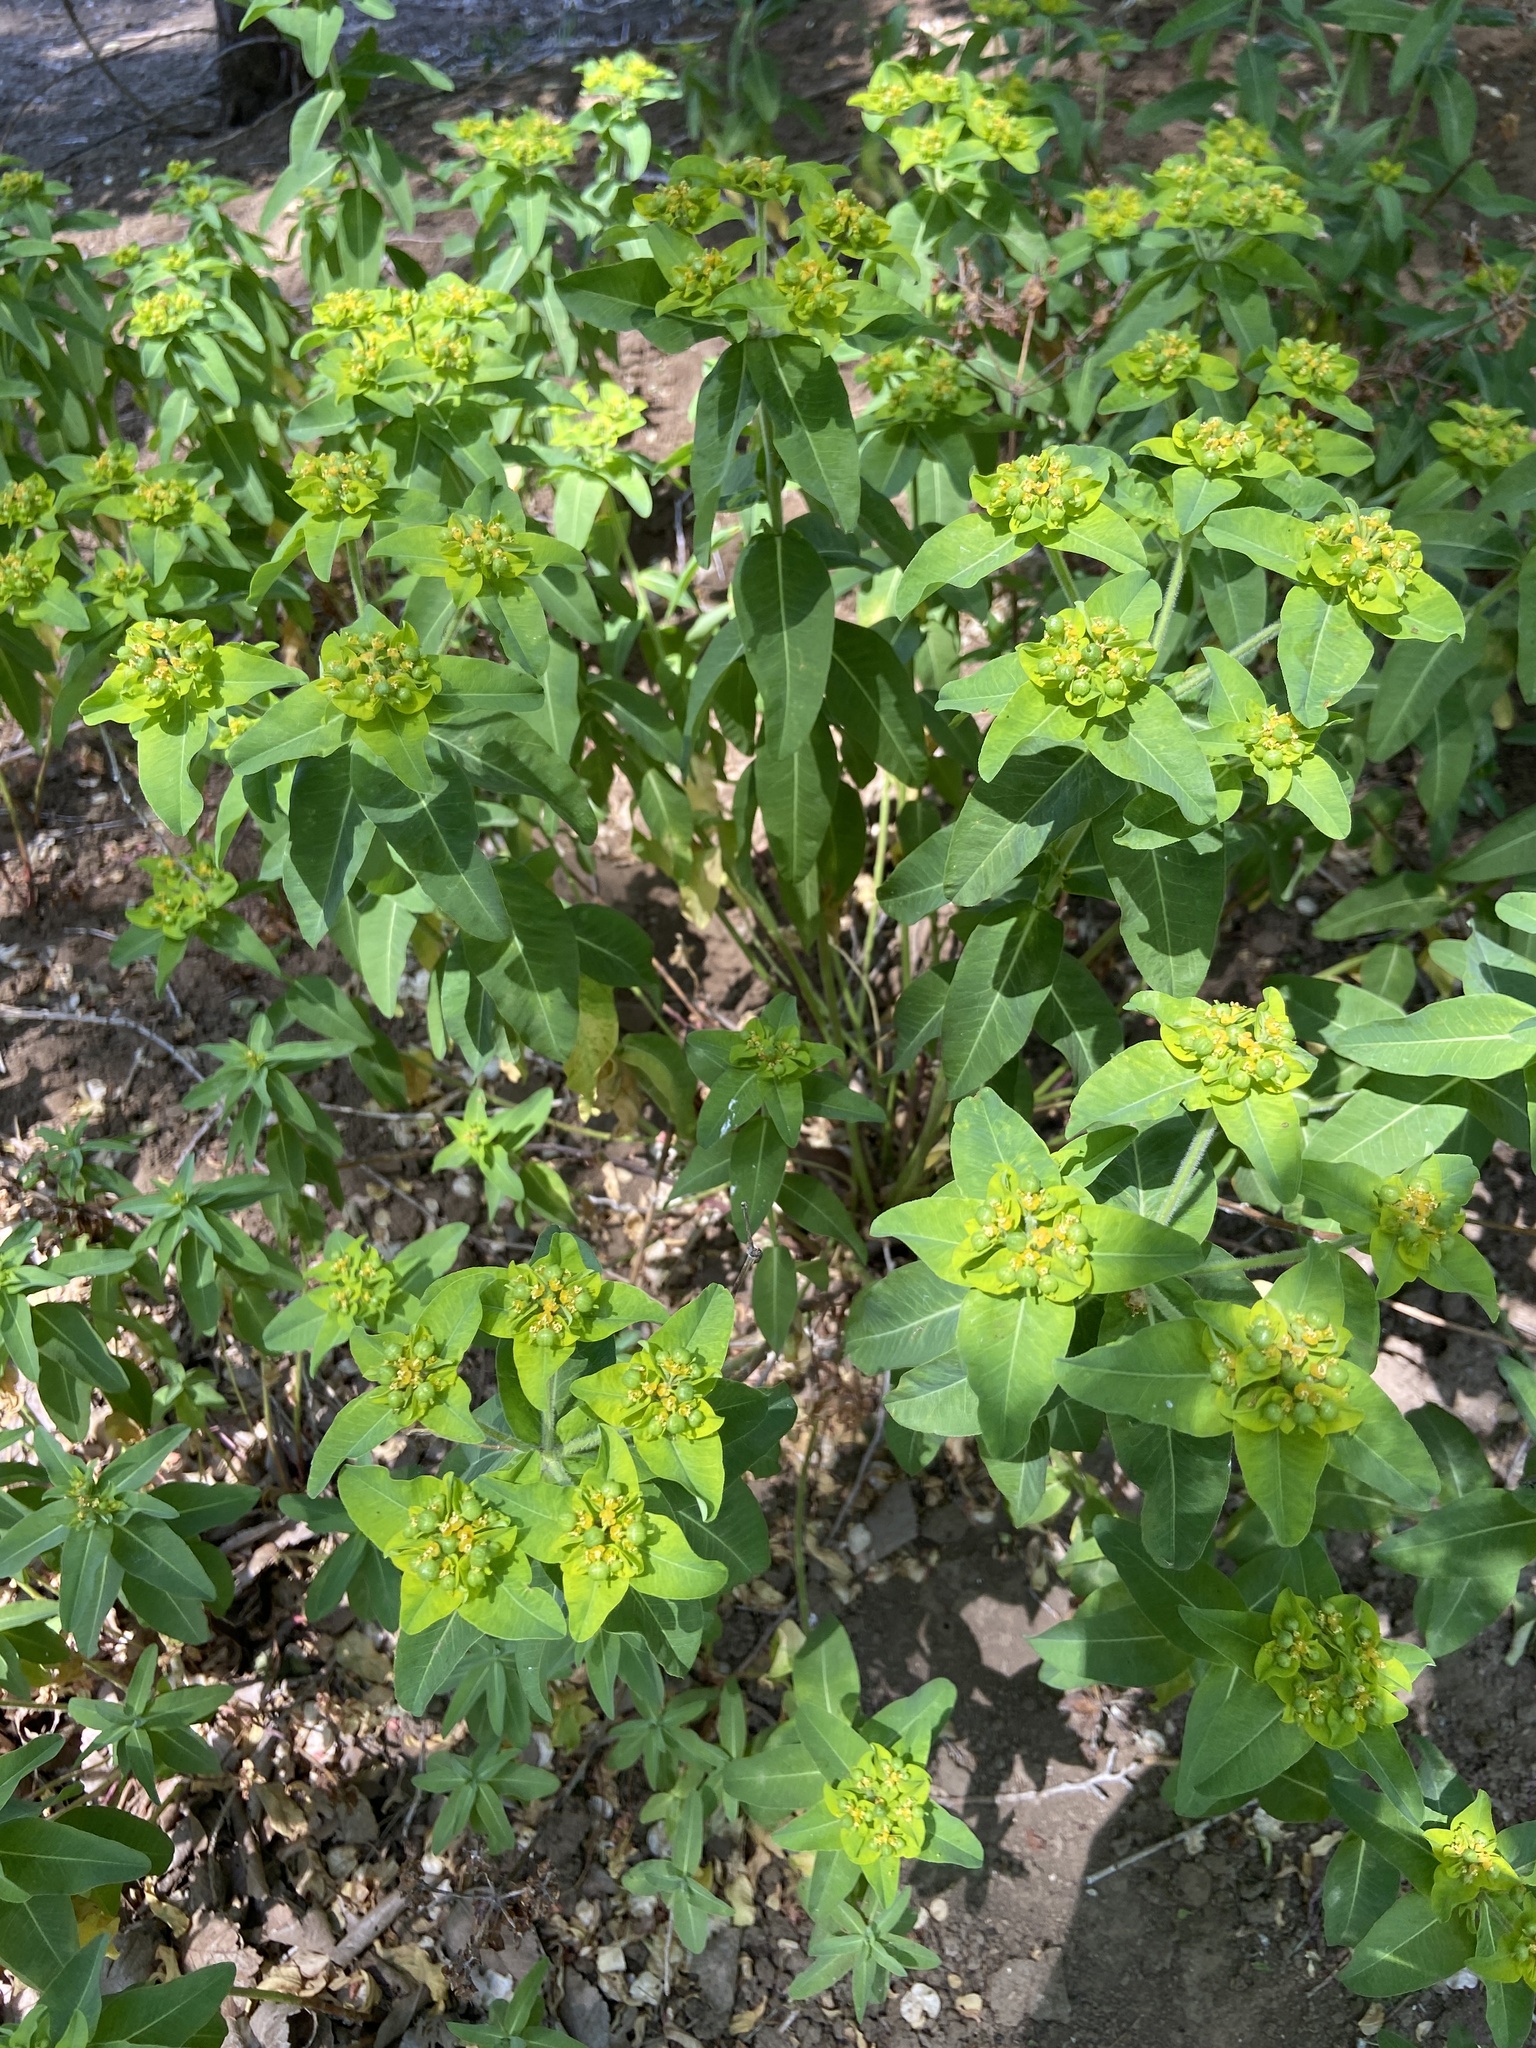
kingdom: Plantae
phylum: Tracheophyta
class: Magnoliopsida
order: Malpighiales
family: Euphorbiaceae
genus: Euphorbia
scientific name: Euphorbia oblongata
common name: Balkan spurge
